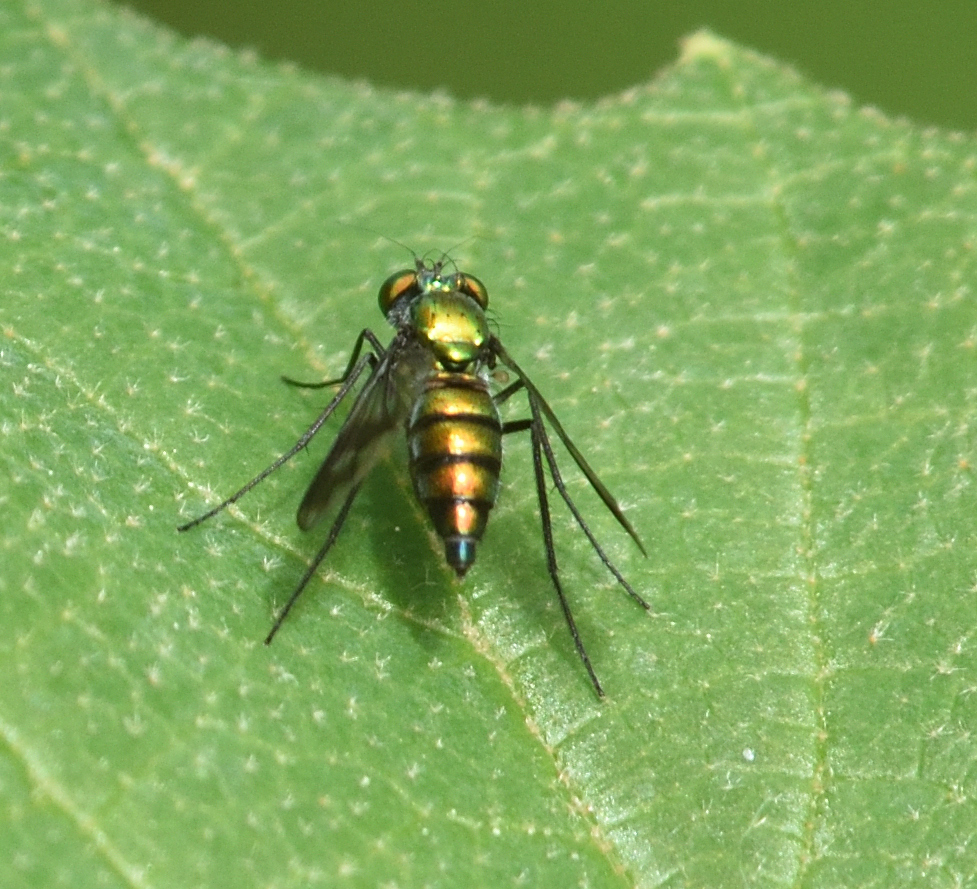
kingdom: Animalia
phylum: Arthropoda
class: Insecta
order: Diptera
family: Dolichopodidae
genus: Condylostylus
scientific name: Condylostylus patibulatus
